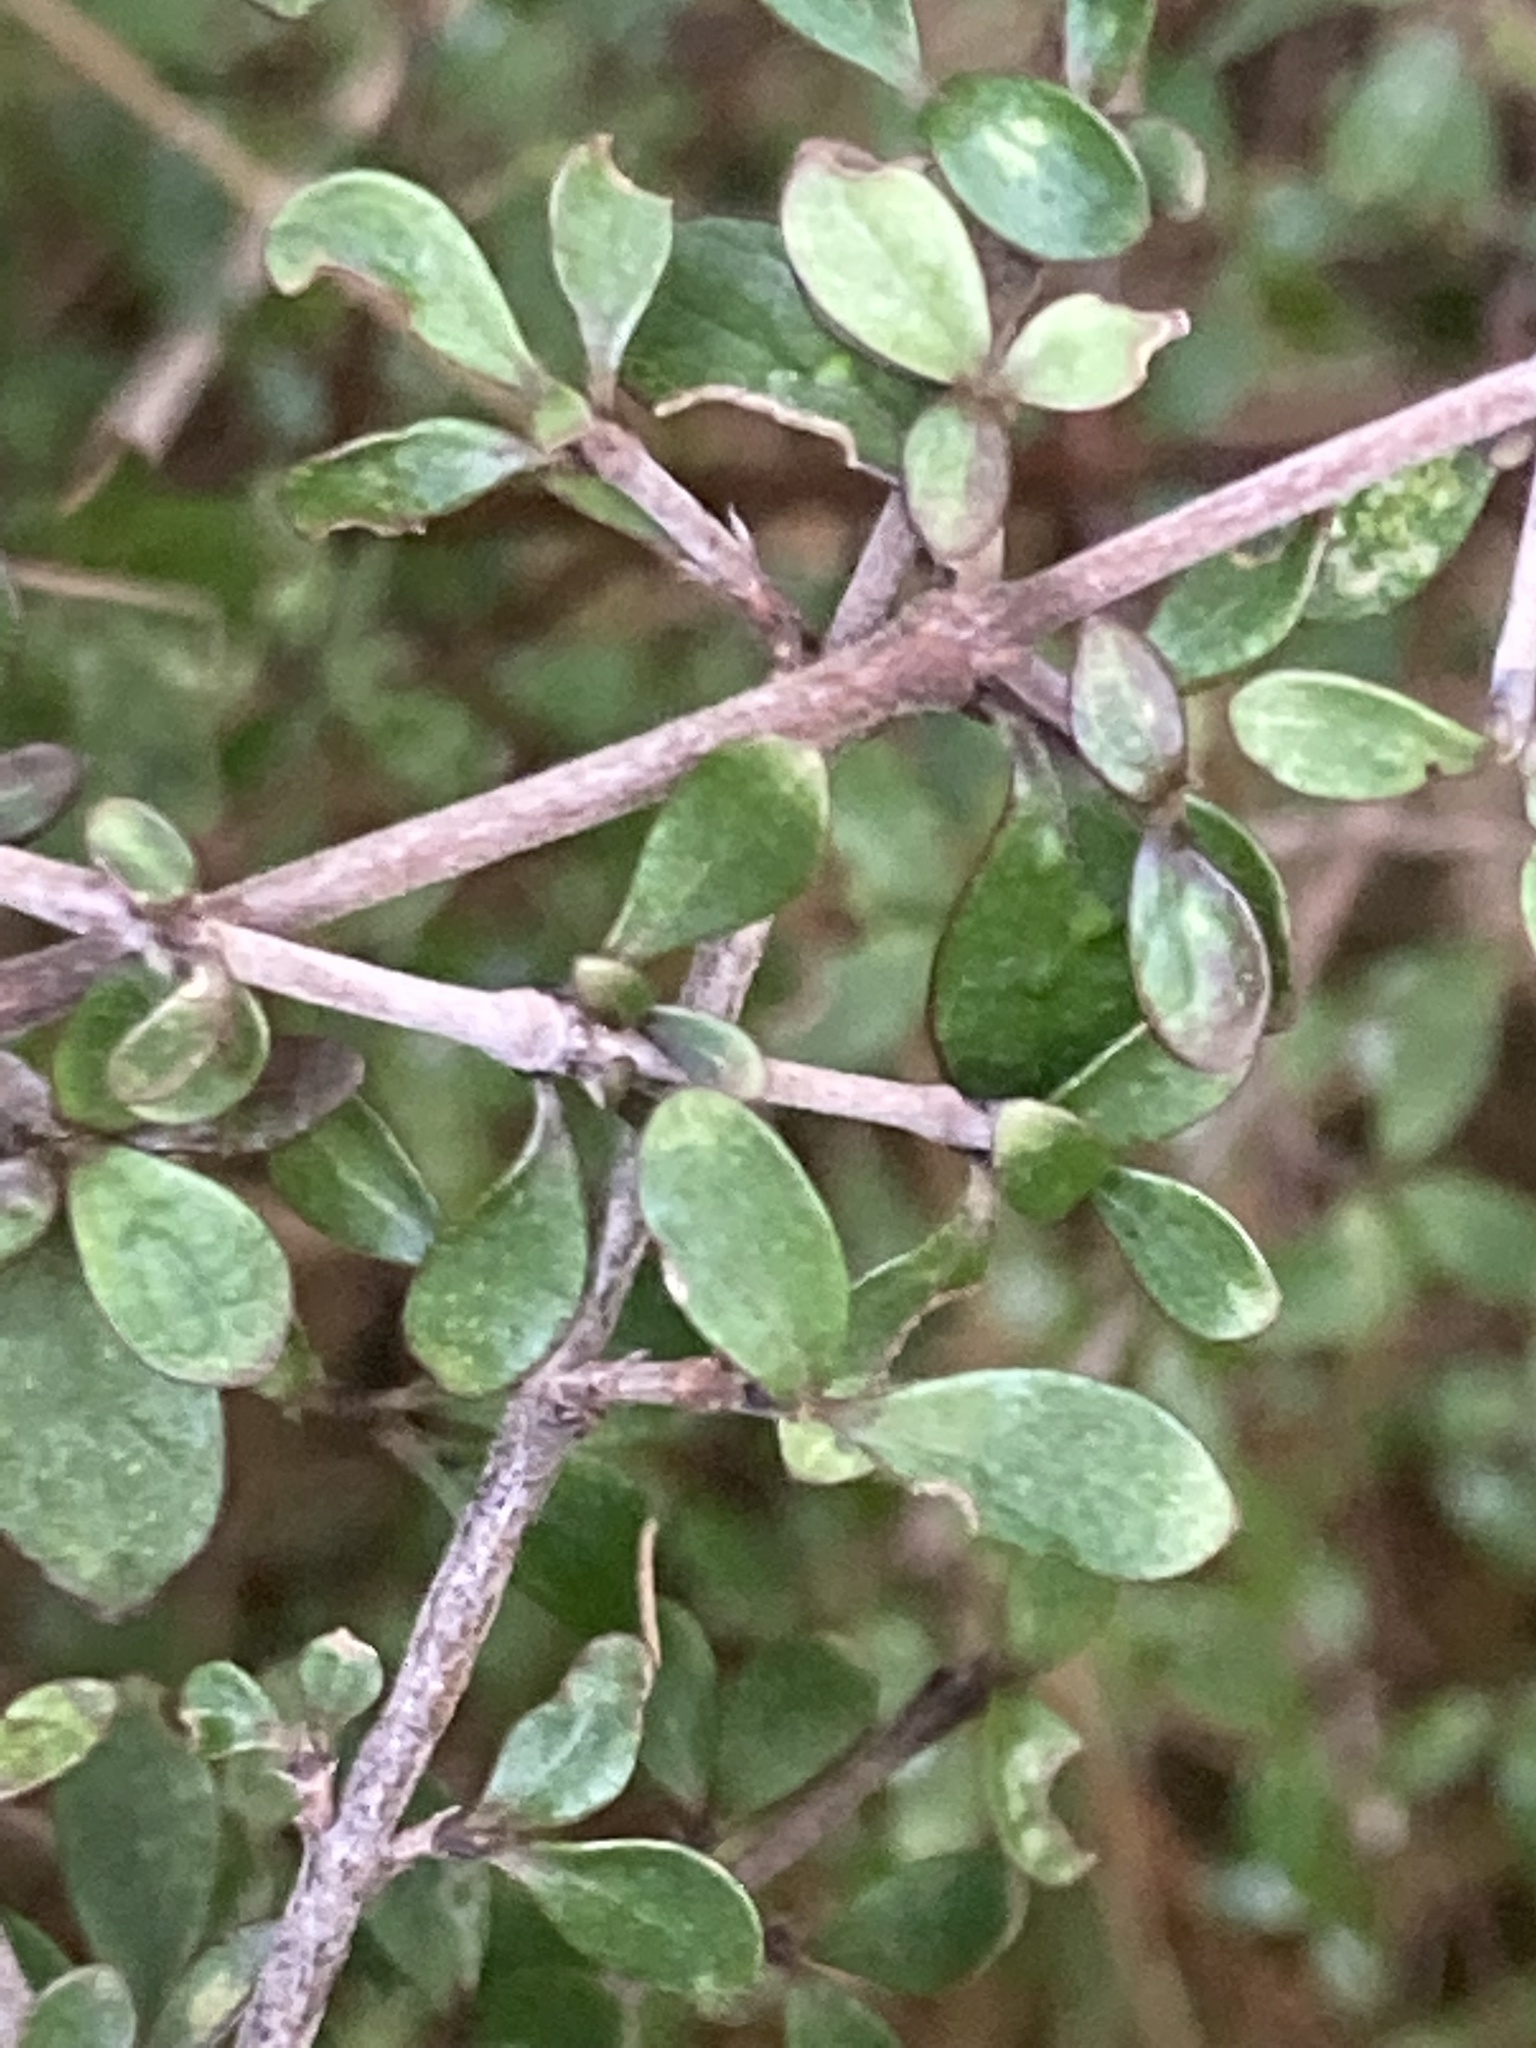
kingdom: Plantae
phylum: Tracheophyta
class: Magnoliopsida
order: Gentianales
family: Rubiaceae
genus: Coprosma
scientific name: Coprosma dumosa
